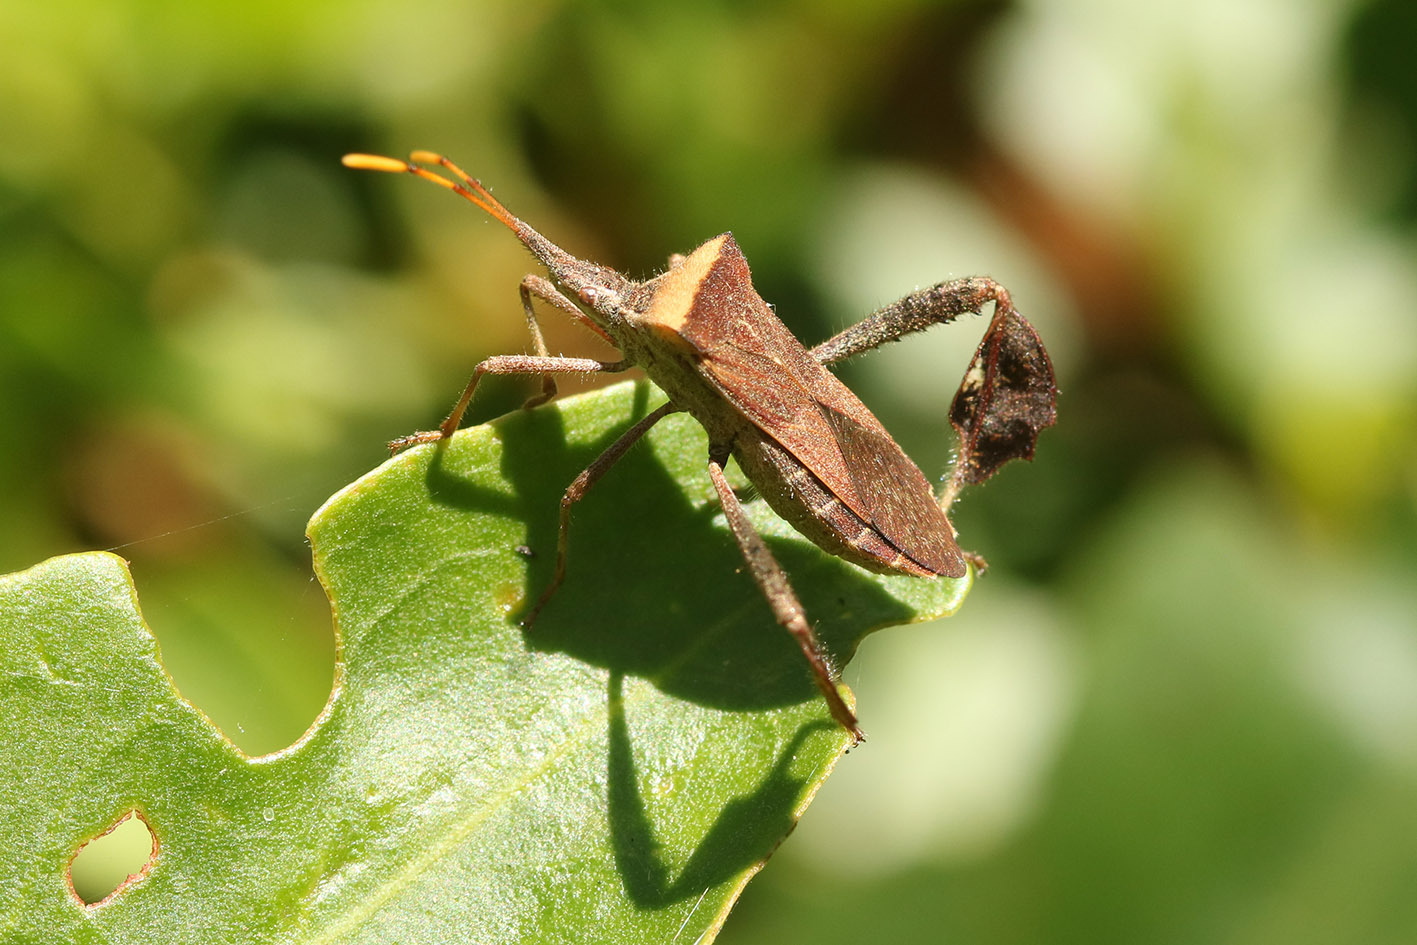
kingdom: Animalia
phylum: Arthropoda
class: Insecta
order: Hemiptera
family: Coreidae
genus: Leptoglossus
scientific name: Leptoglossus concaviusculus
